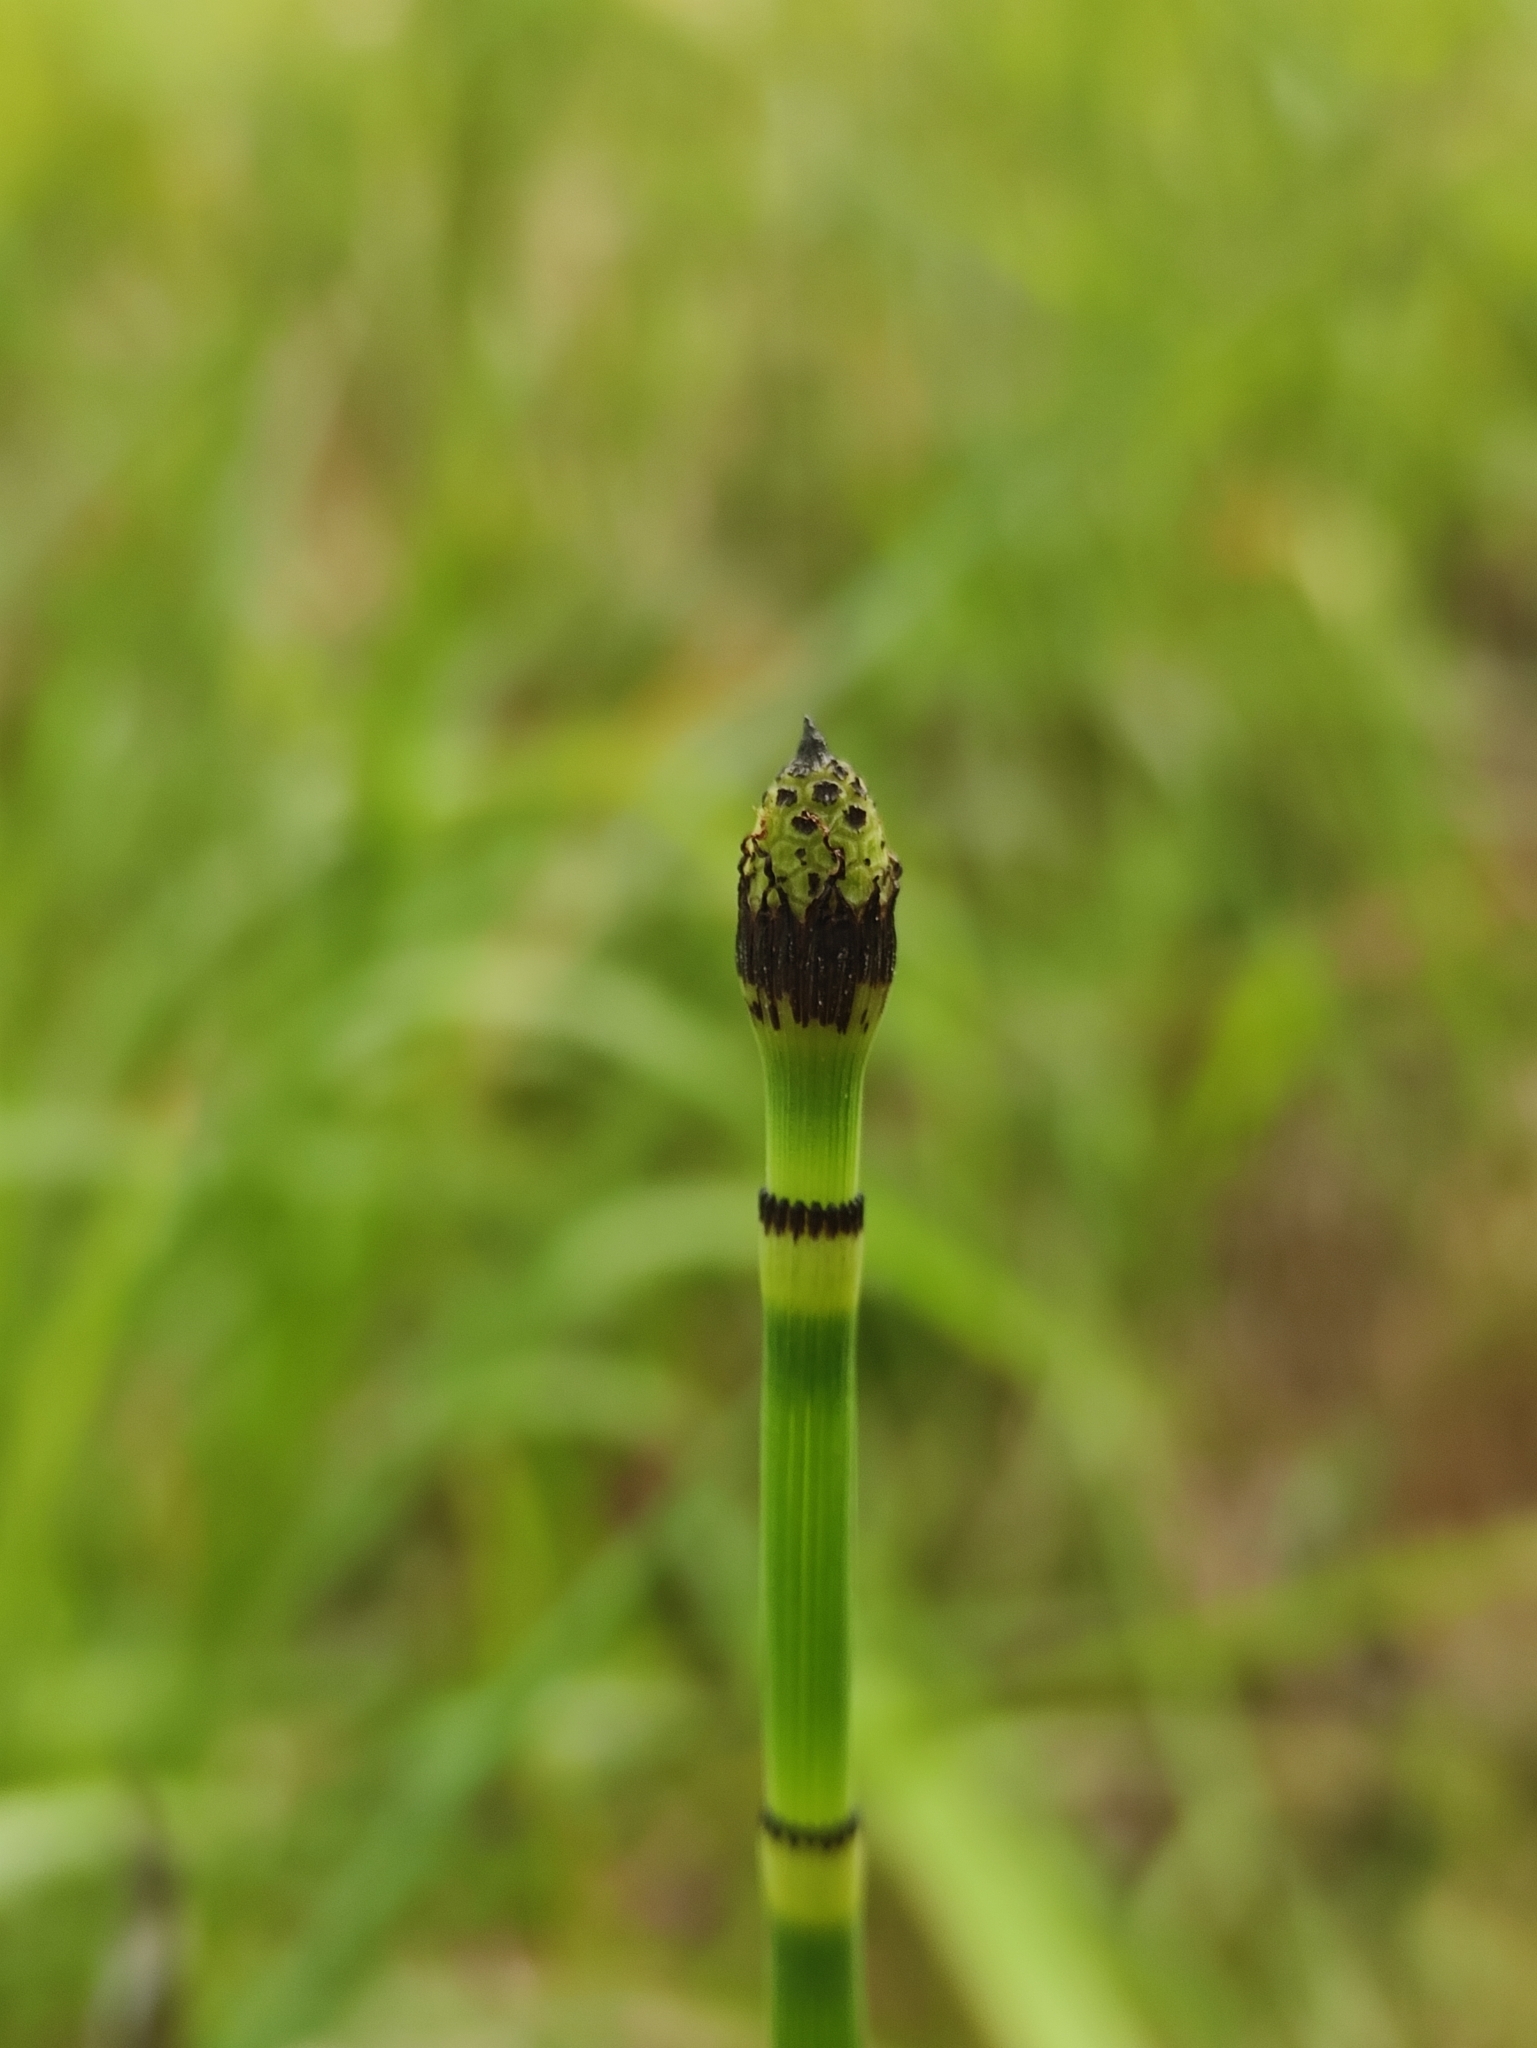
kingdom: Plantae
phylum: Tracheophyta
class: Polypodiopsida
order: Equisetales
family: Equisetaceae
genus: Equisetum
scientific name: Equisetum hyemale
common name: Rough horsetail
